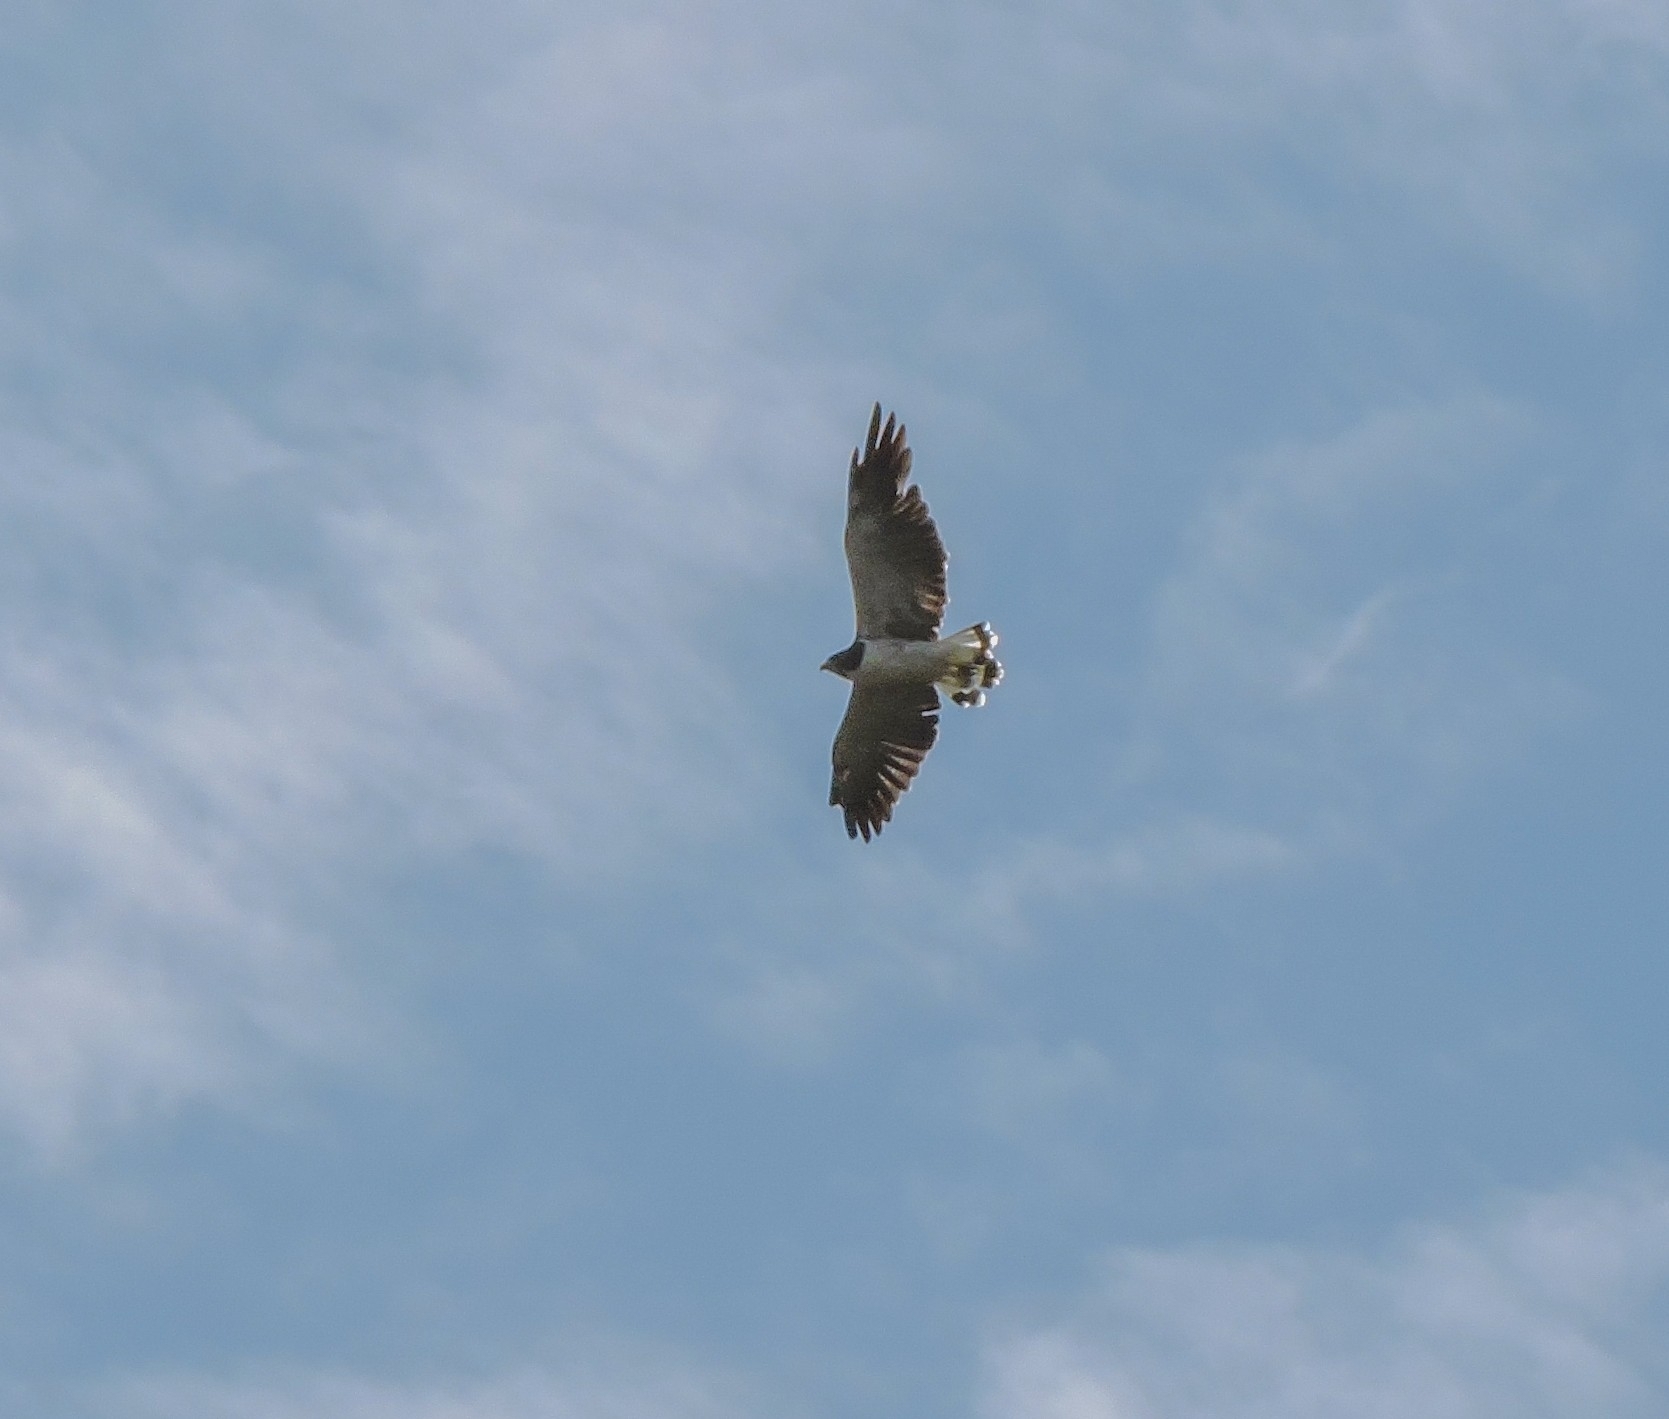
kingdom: Animalia
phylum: Chordata
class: Aves
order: Accipitriformes
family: Accipitridae
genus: Buteo
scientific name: Buteo albicaudatus
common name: White-tailed hawk
